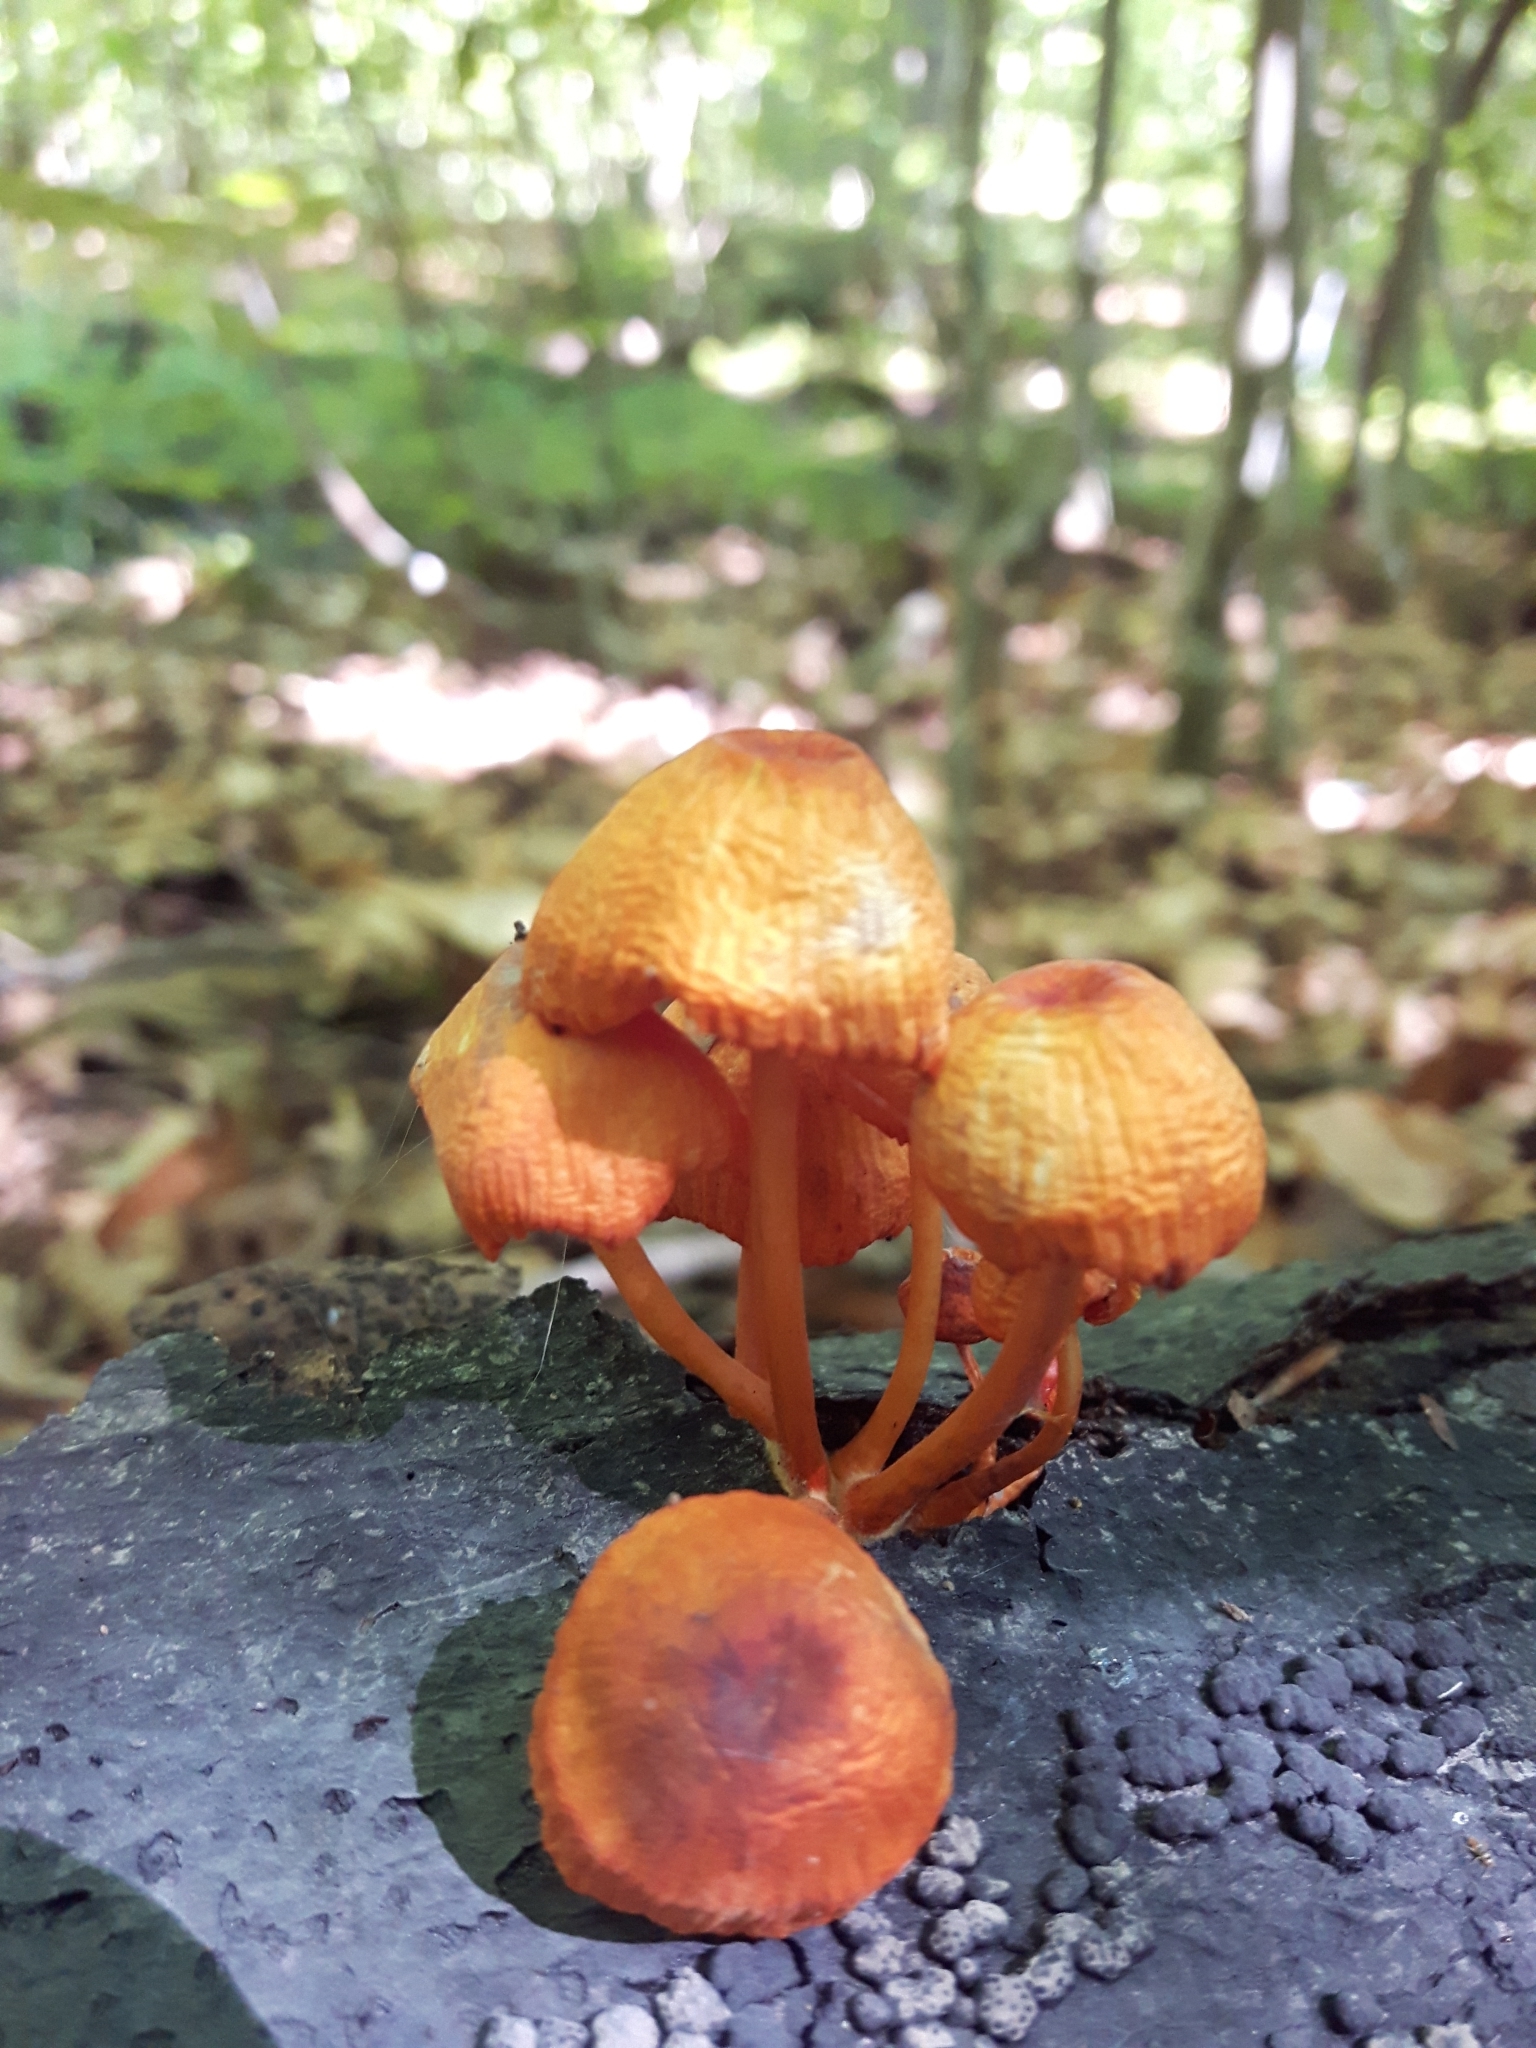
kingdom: Fungi
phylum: Basidiomycota
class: Agaricomycetes
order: Agaricales
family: Mycenaceae
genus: Mycena
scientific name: Mycena leaiana
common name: Orange mycena
